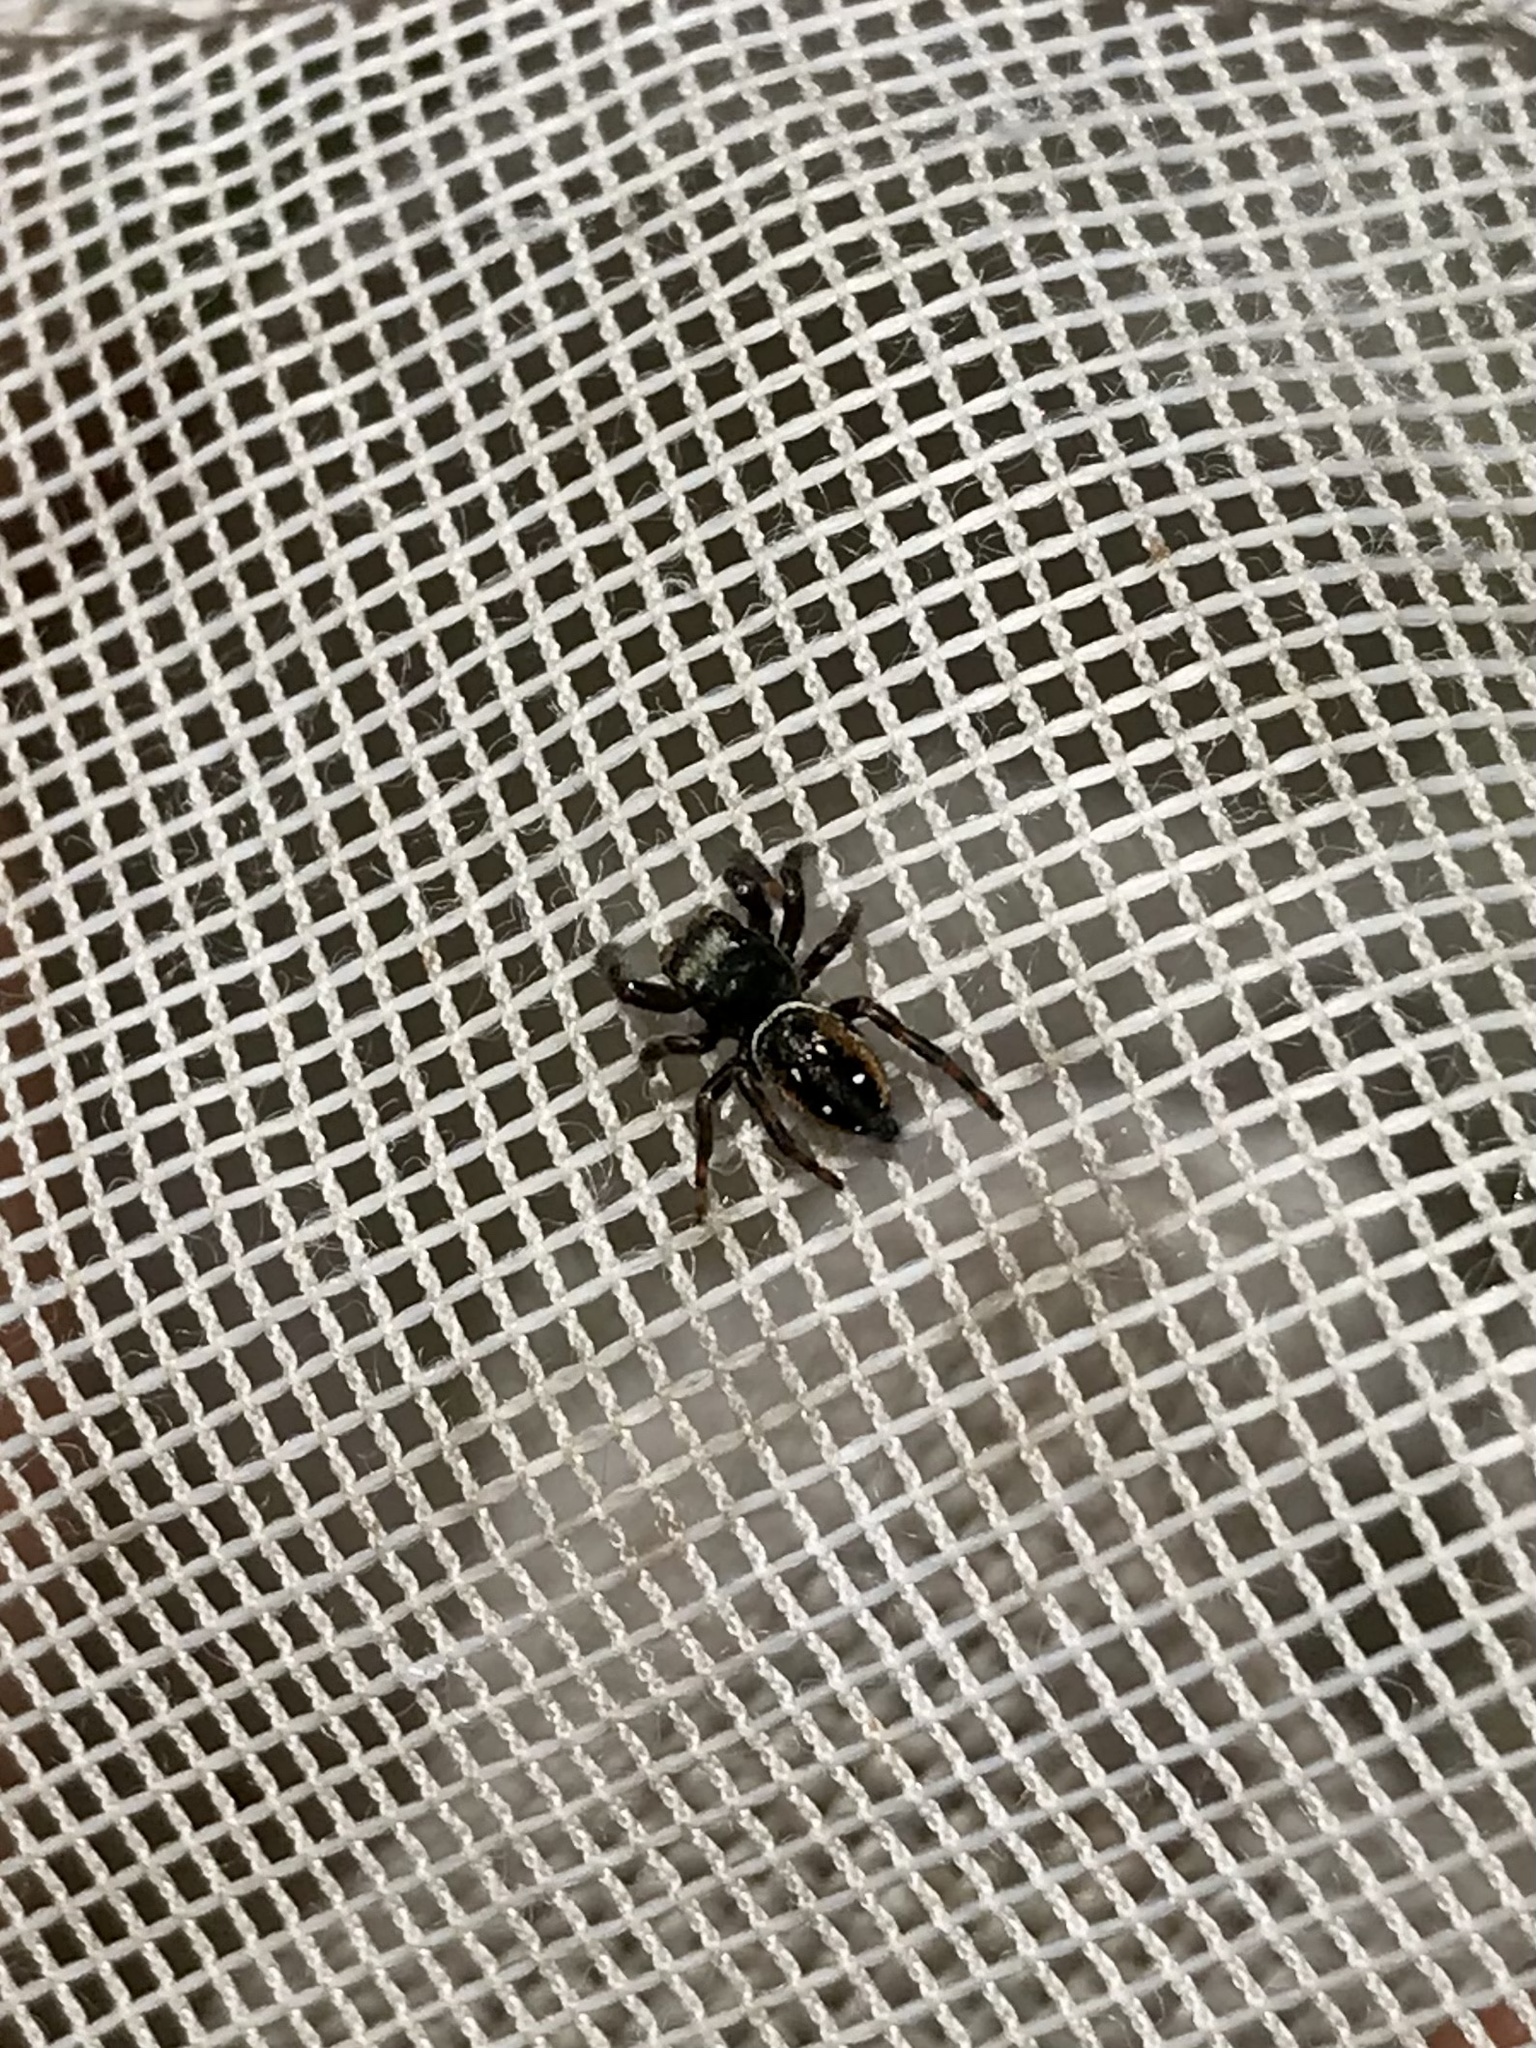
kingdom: Animalia
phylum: Arthropoda
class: Arachnida
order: Araneae
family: Salticidae
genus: Phidippus
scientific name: Phidippus clarus
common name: Brilliant jumping spider
